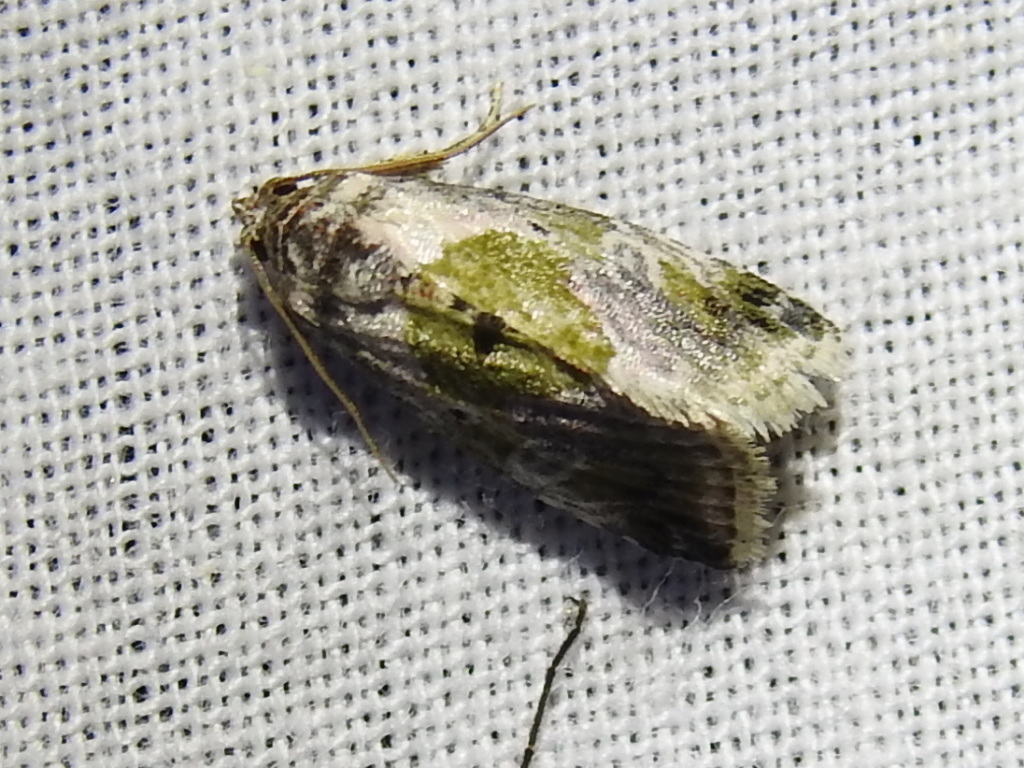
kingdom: Animalia
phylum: Arthropoda
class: Insecta
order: Lepidoptera
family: Noctuidae
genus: Maliattha
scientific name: Maliattha synochitis
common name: Black-dotted glyph
